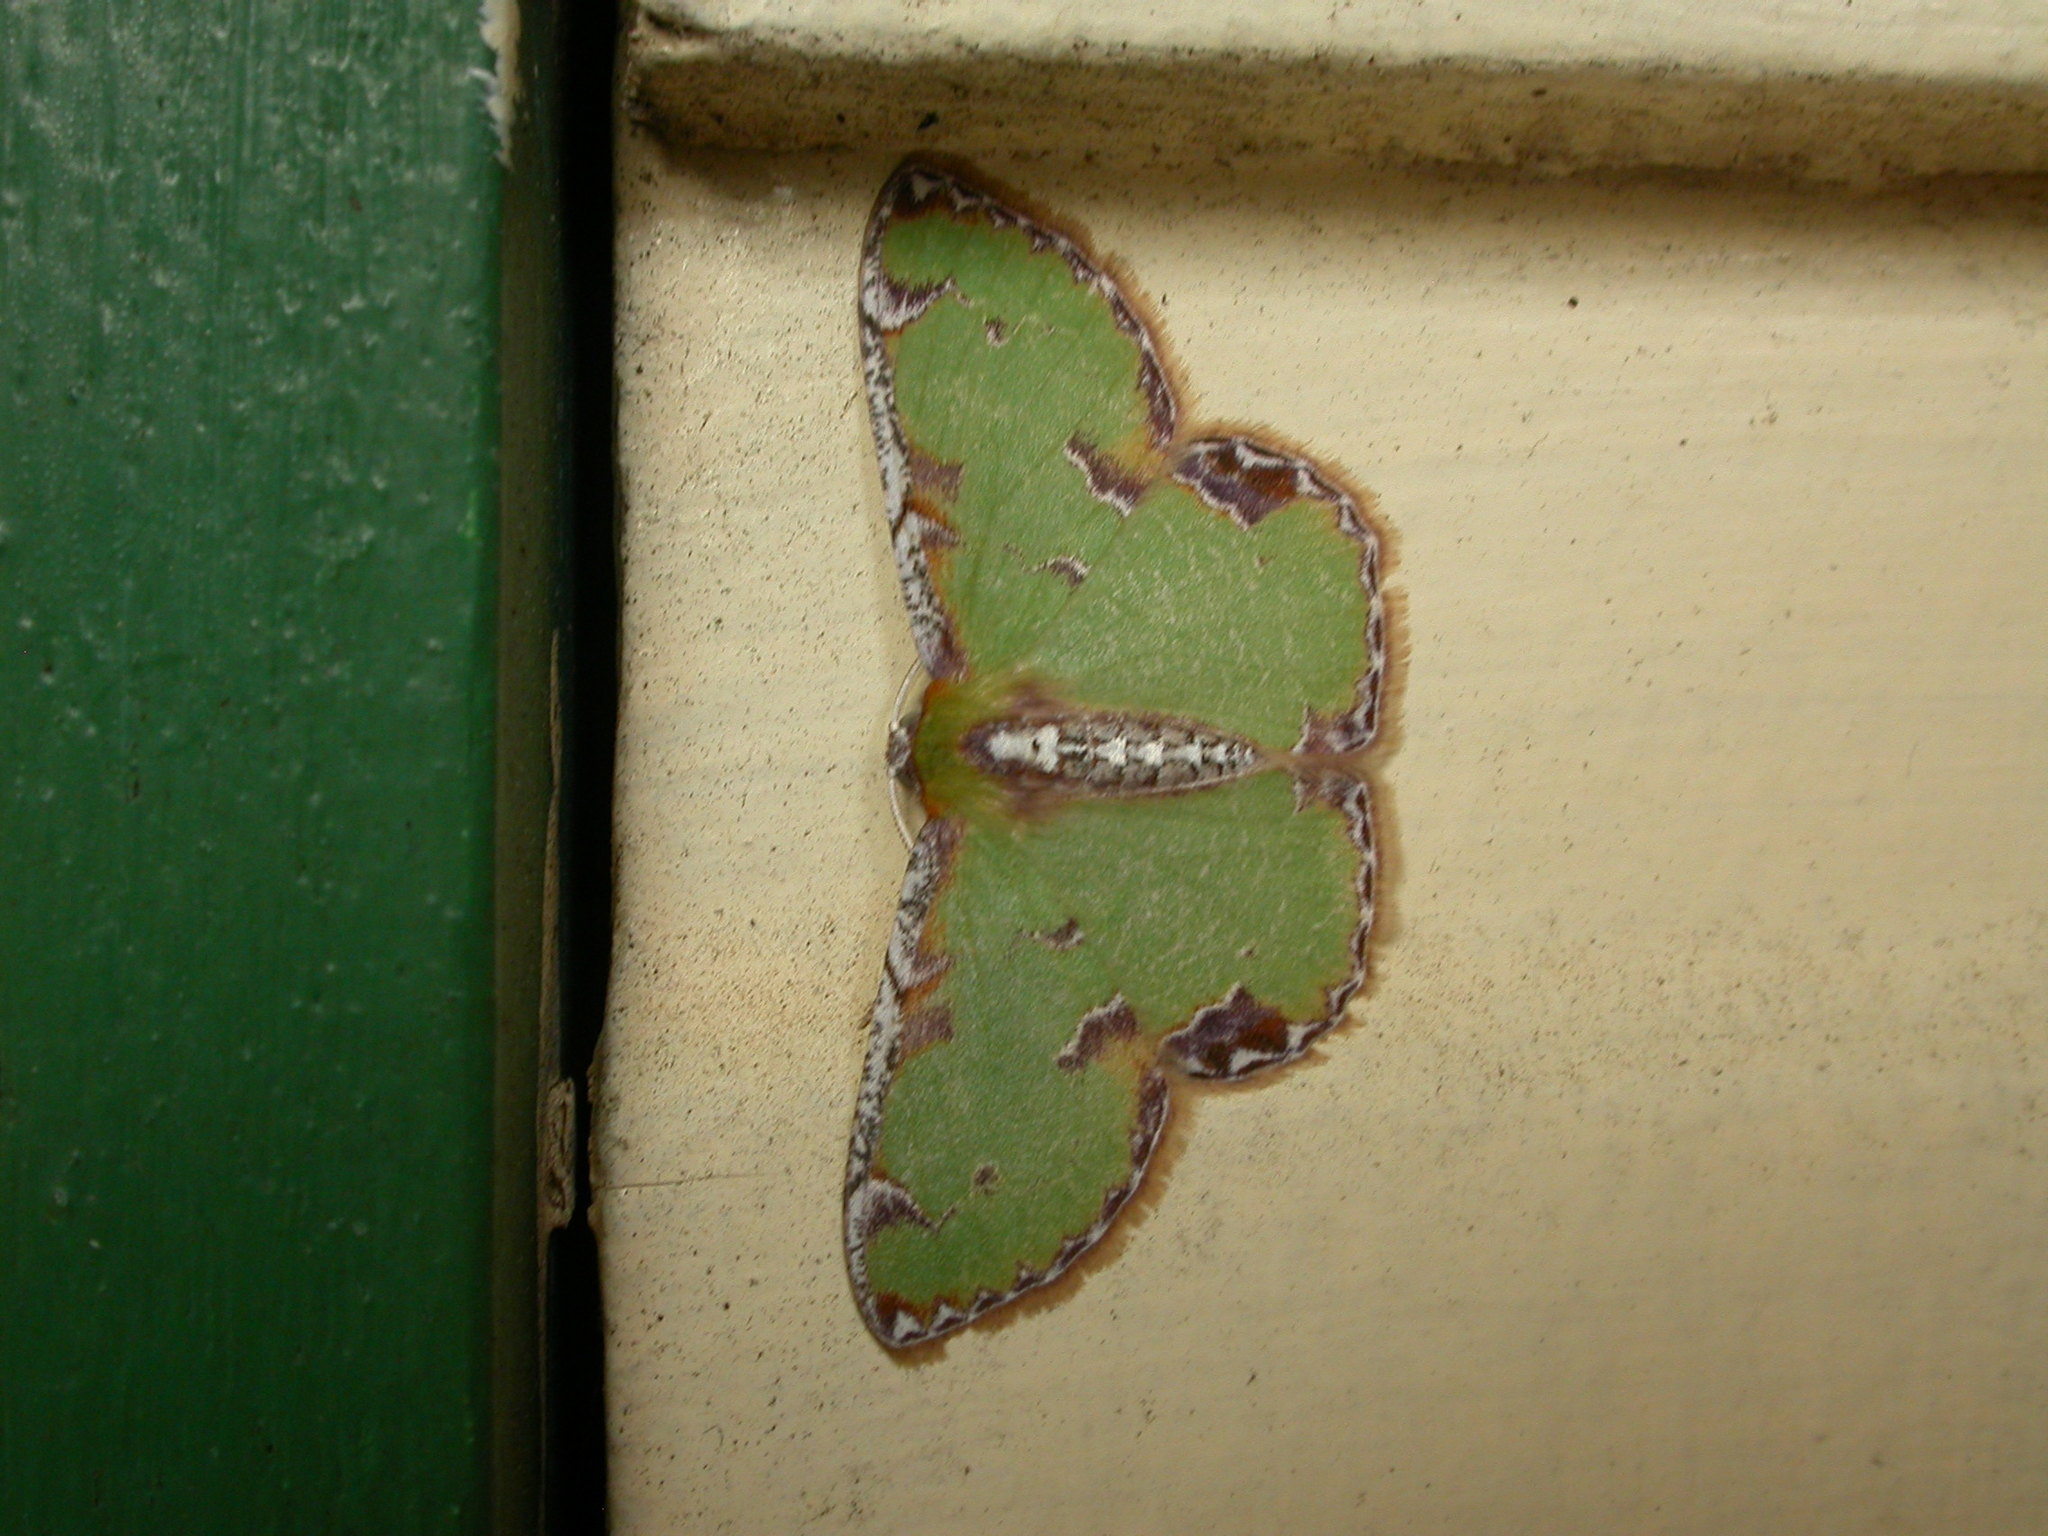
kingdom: Animalia
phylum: Arthropoda
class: Insecta
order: Lepidoptera
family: Geometridae
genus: Eucyclodes
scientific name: Eucyclodes buprestaria
